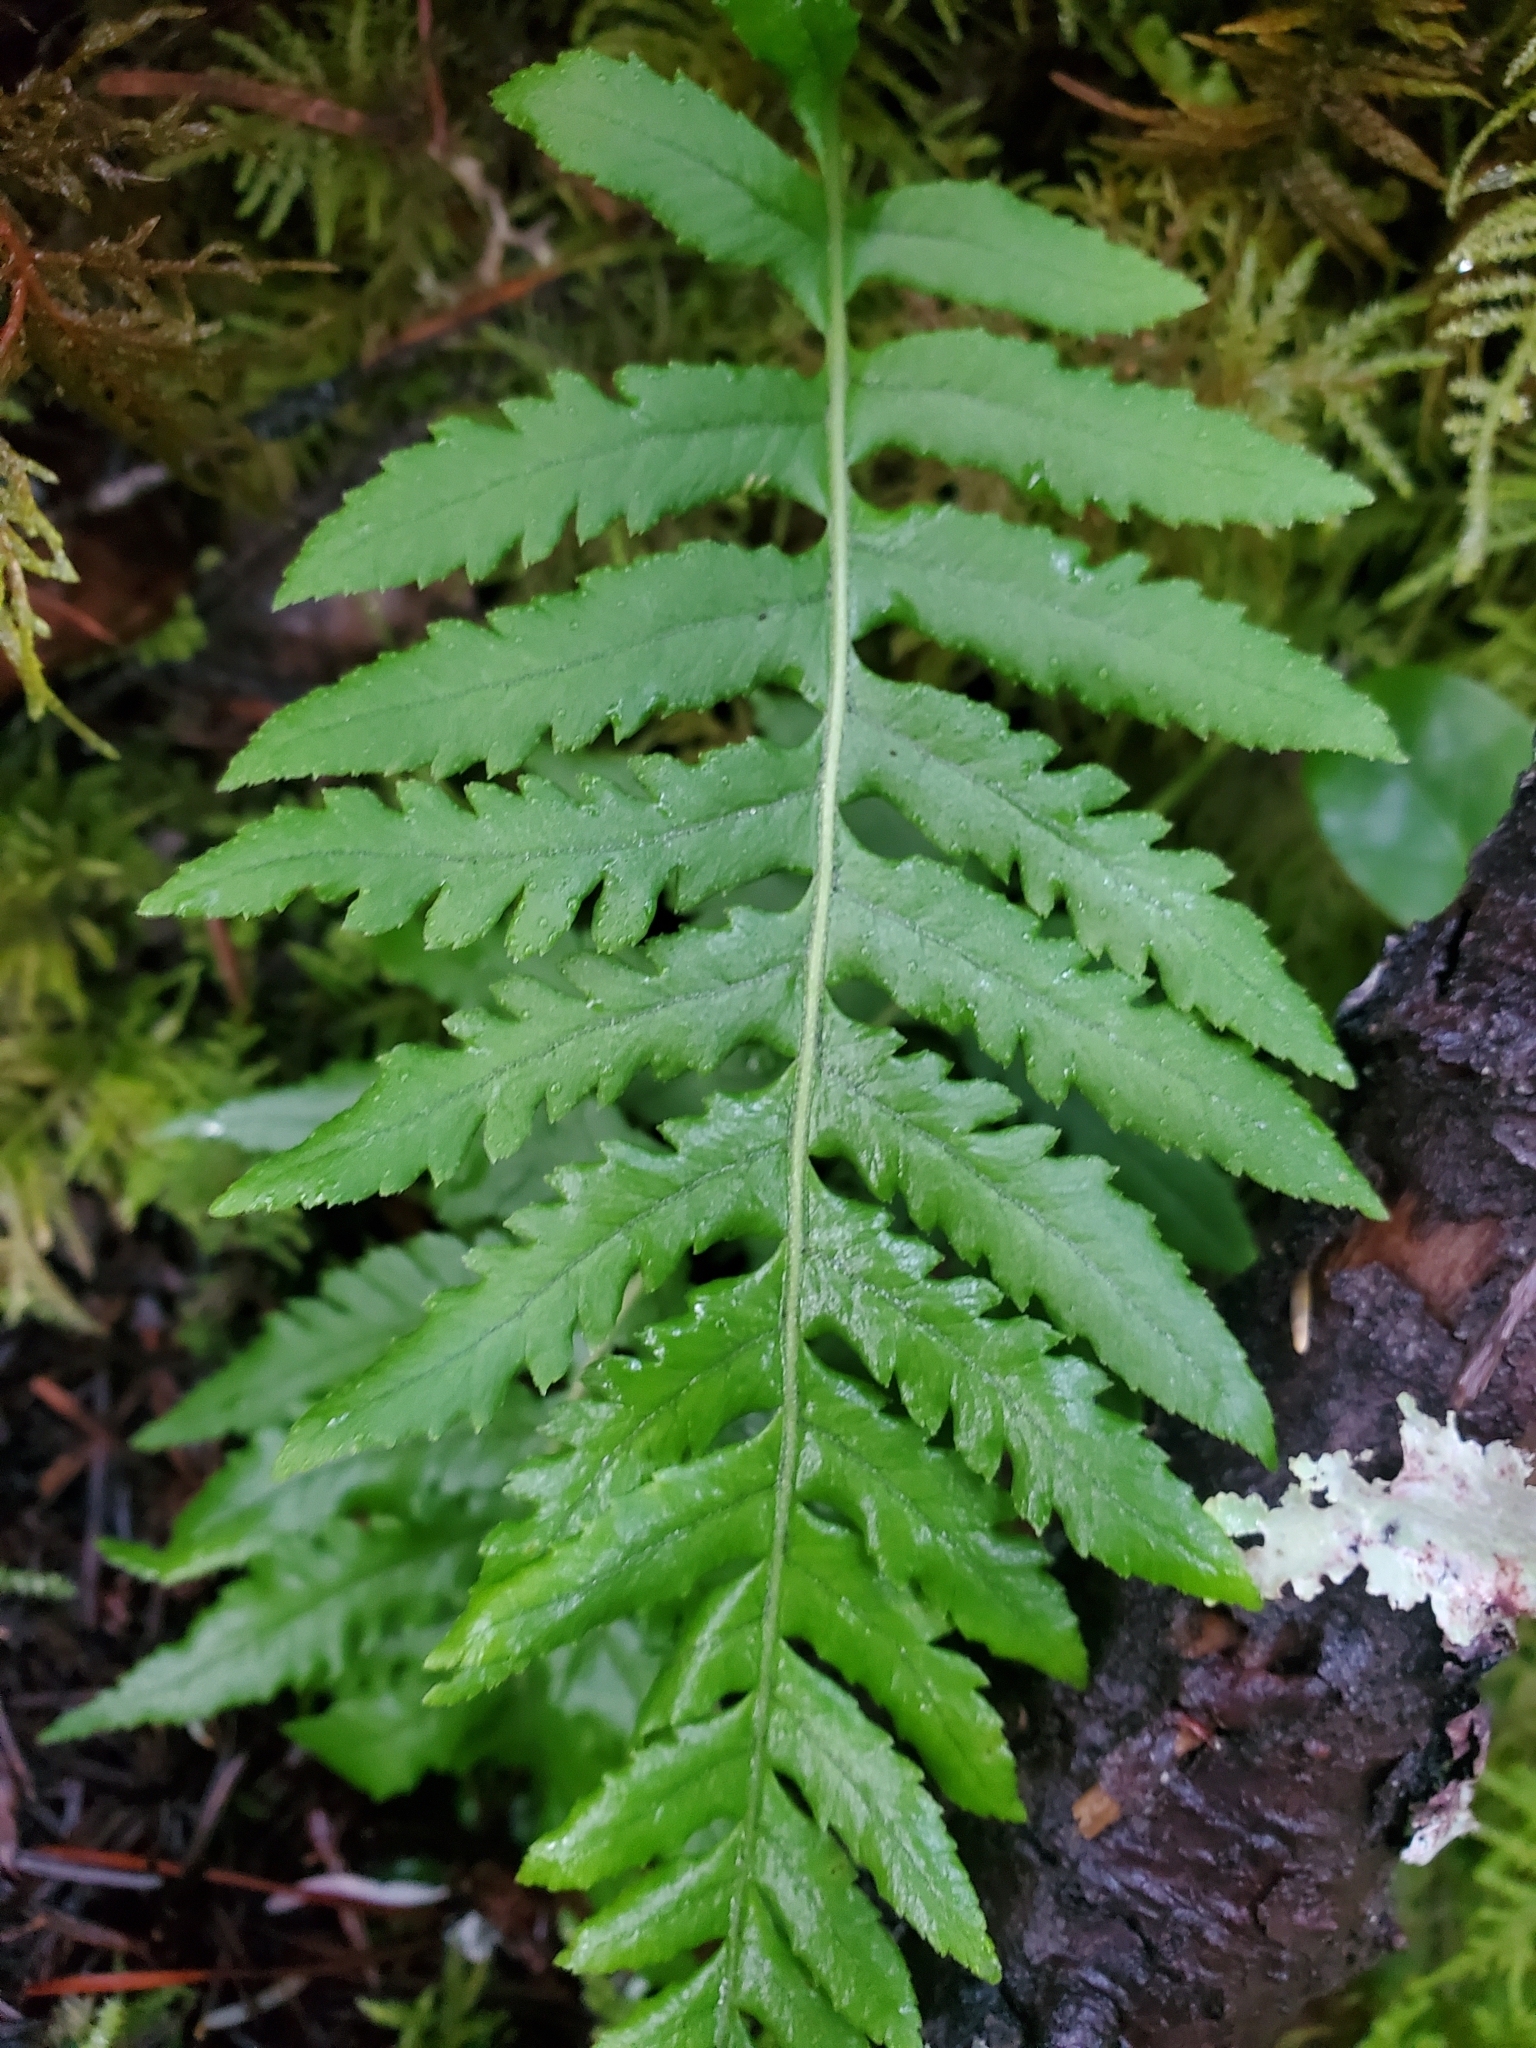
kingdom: Plantae
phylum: Tracheophyta
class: Polypodiopsida
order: Polypodiales
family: Polypodiaceae
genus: Polypodium
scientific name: Polypodium glycyrrhiza
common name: Licorice fern
